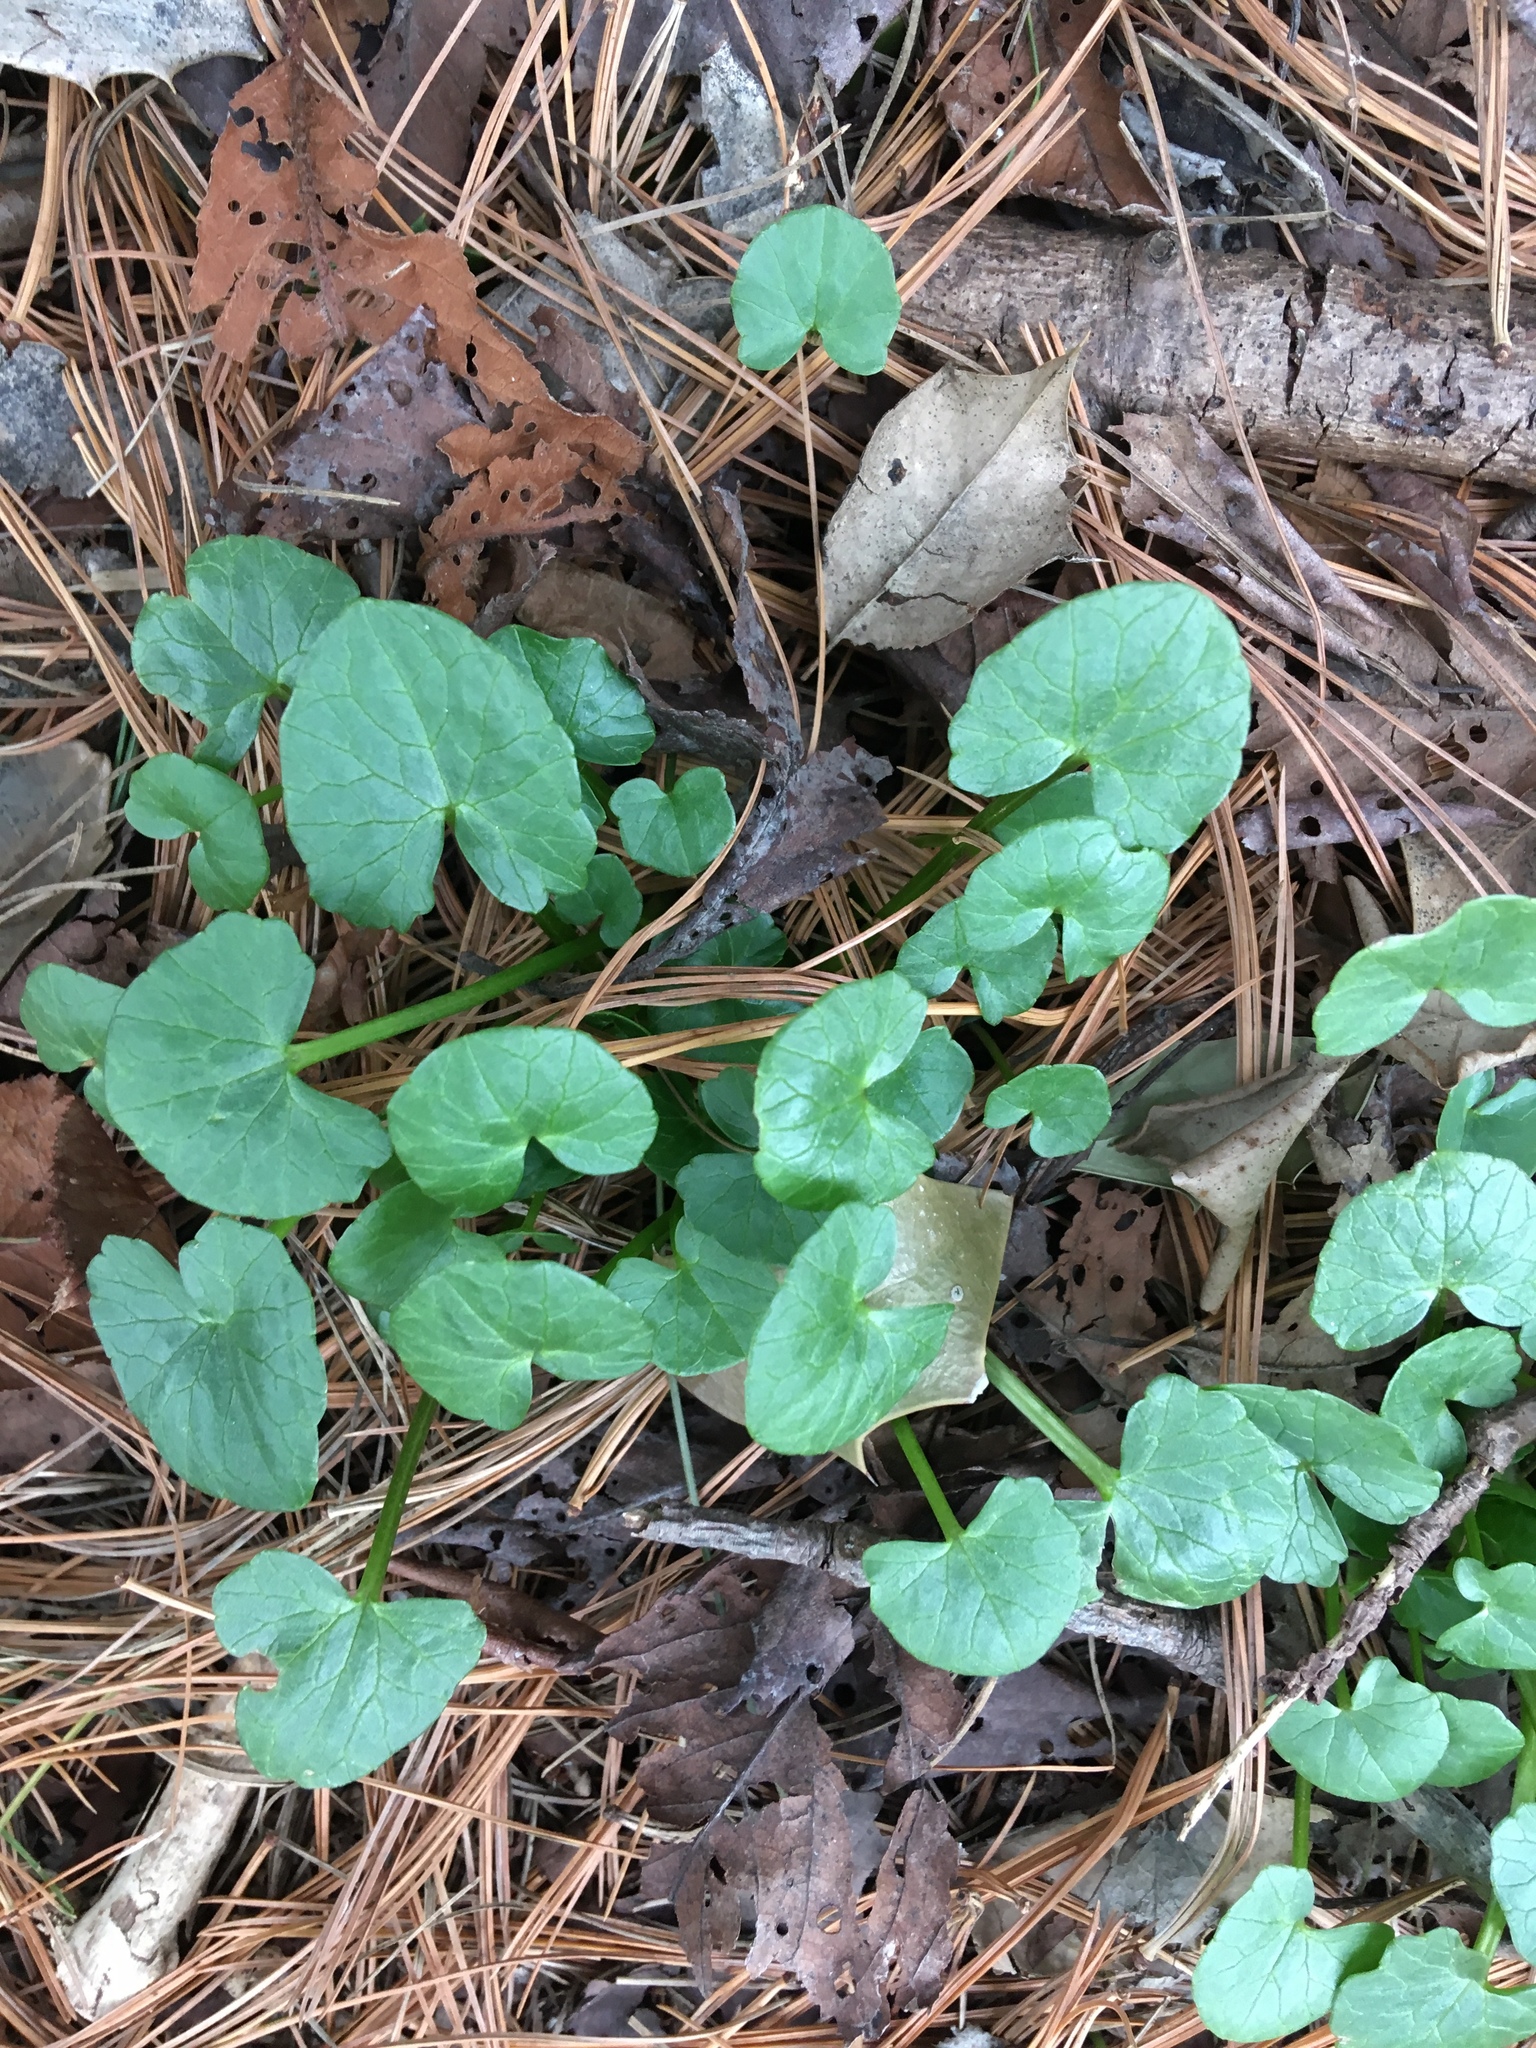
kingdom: Plantae
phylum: Tracheophyta
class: Magnoliopsida
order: Ranunculales
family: Ranunculaceae
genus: Ficaria
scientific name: Ficaria verna
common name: Lesser celandine
